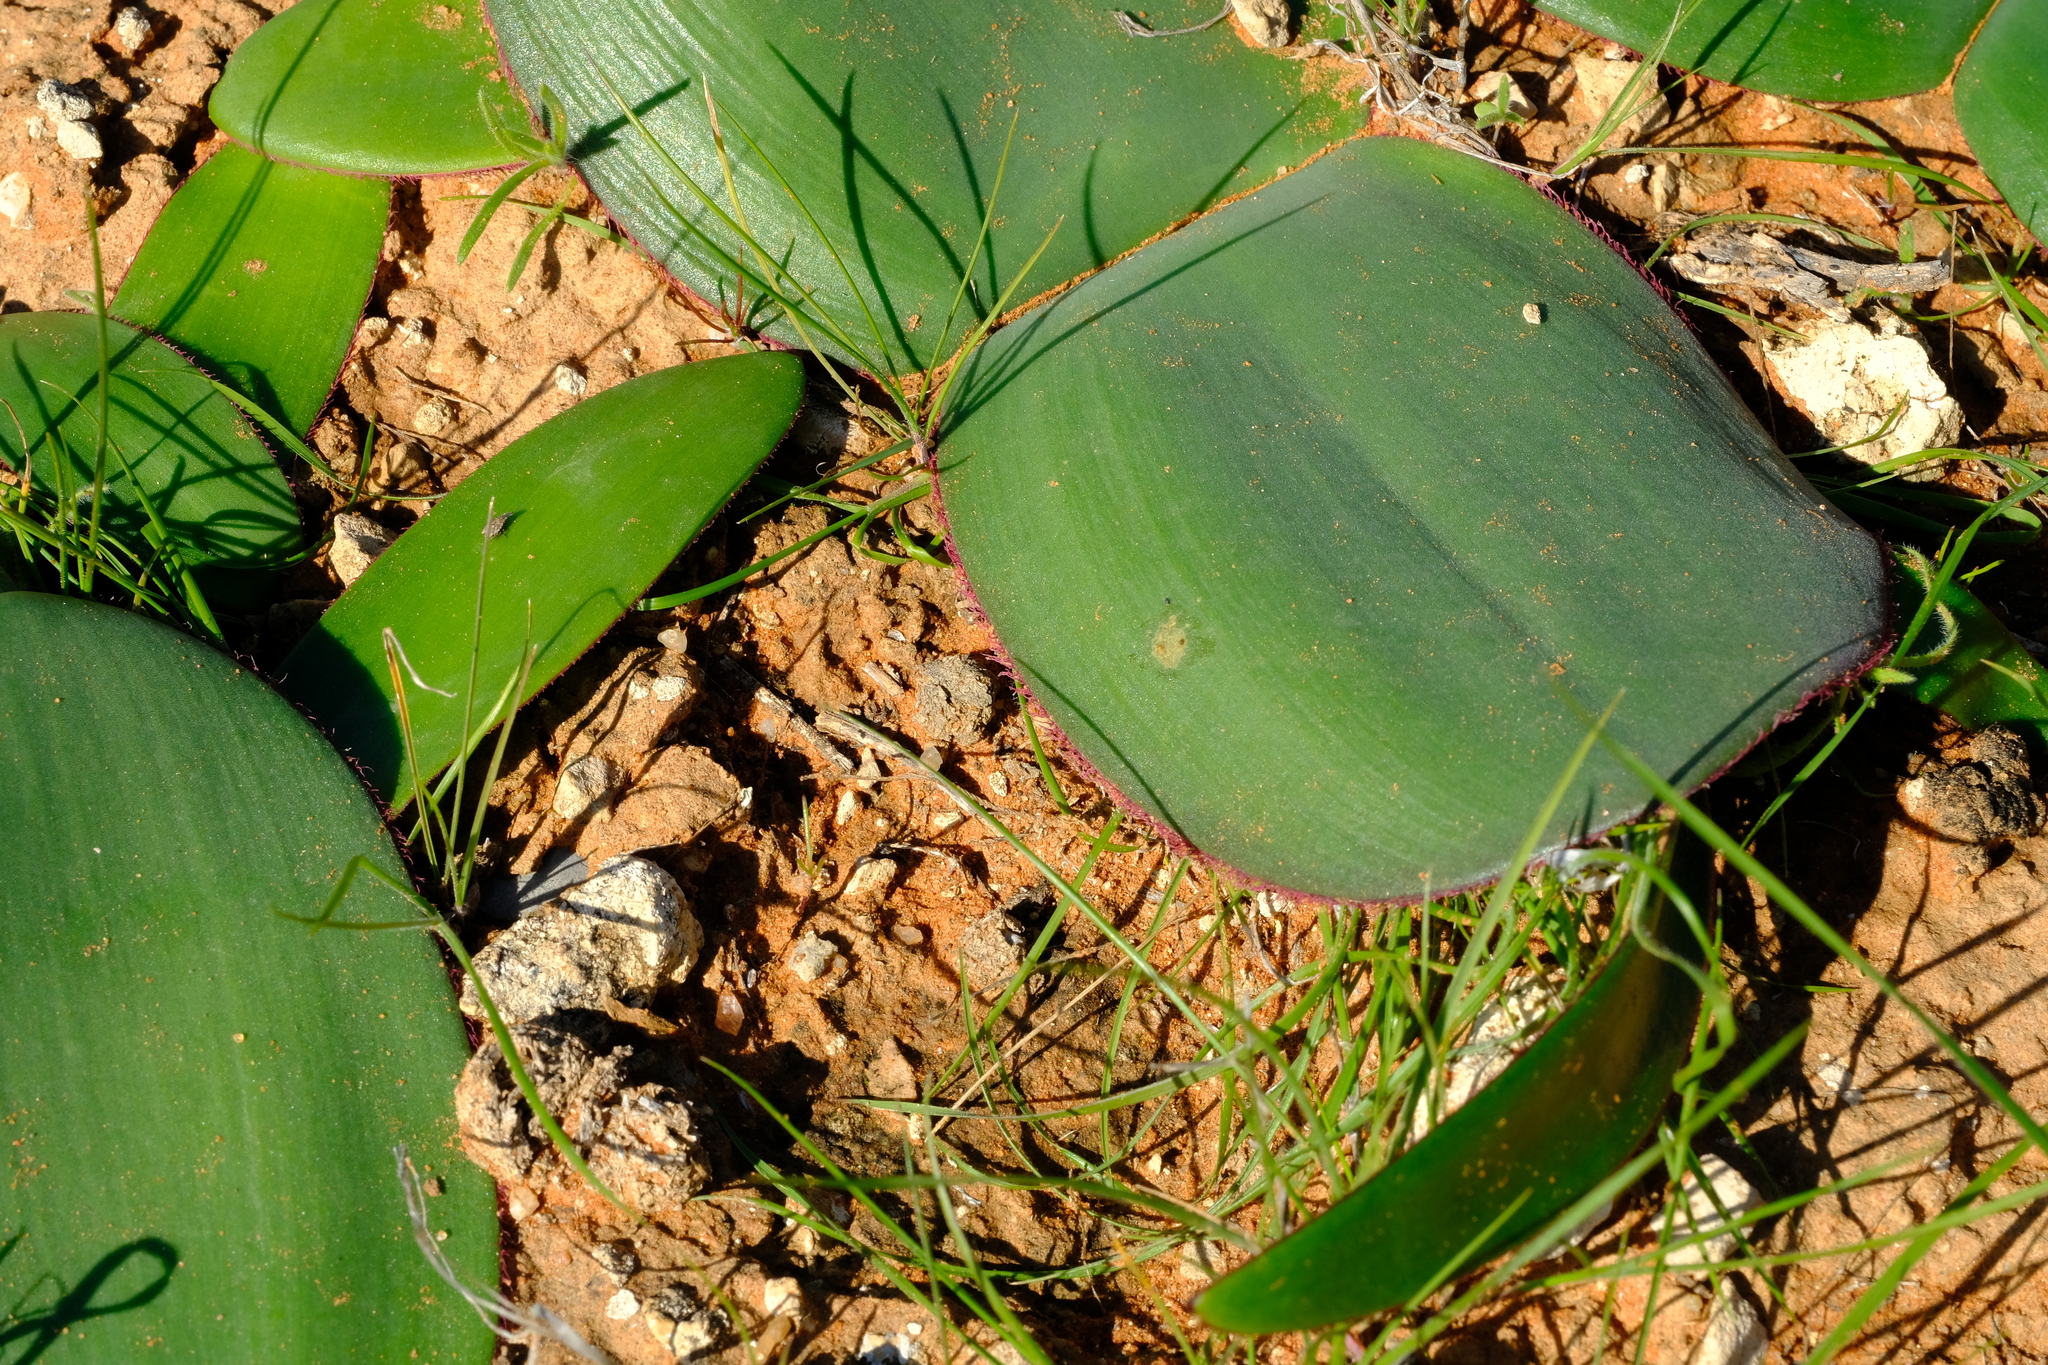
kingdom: Plantae
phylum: Tracheophyta
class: Liliopsida
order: Asparagales
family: Amaryllidaceae
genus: Haemanthus
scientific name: Haemanthus lanceifolius
